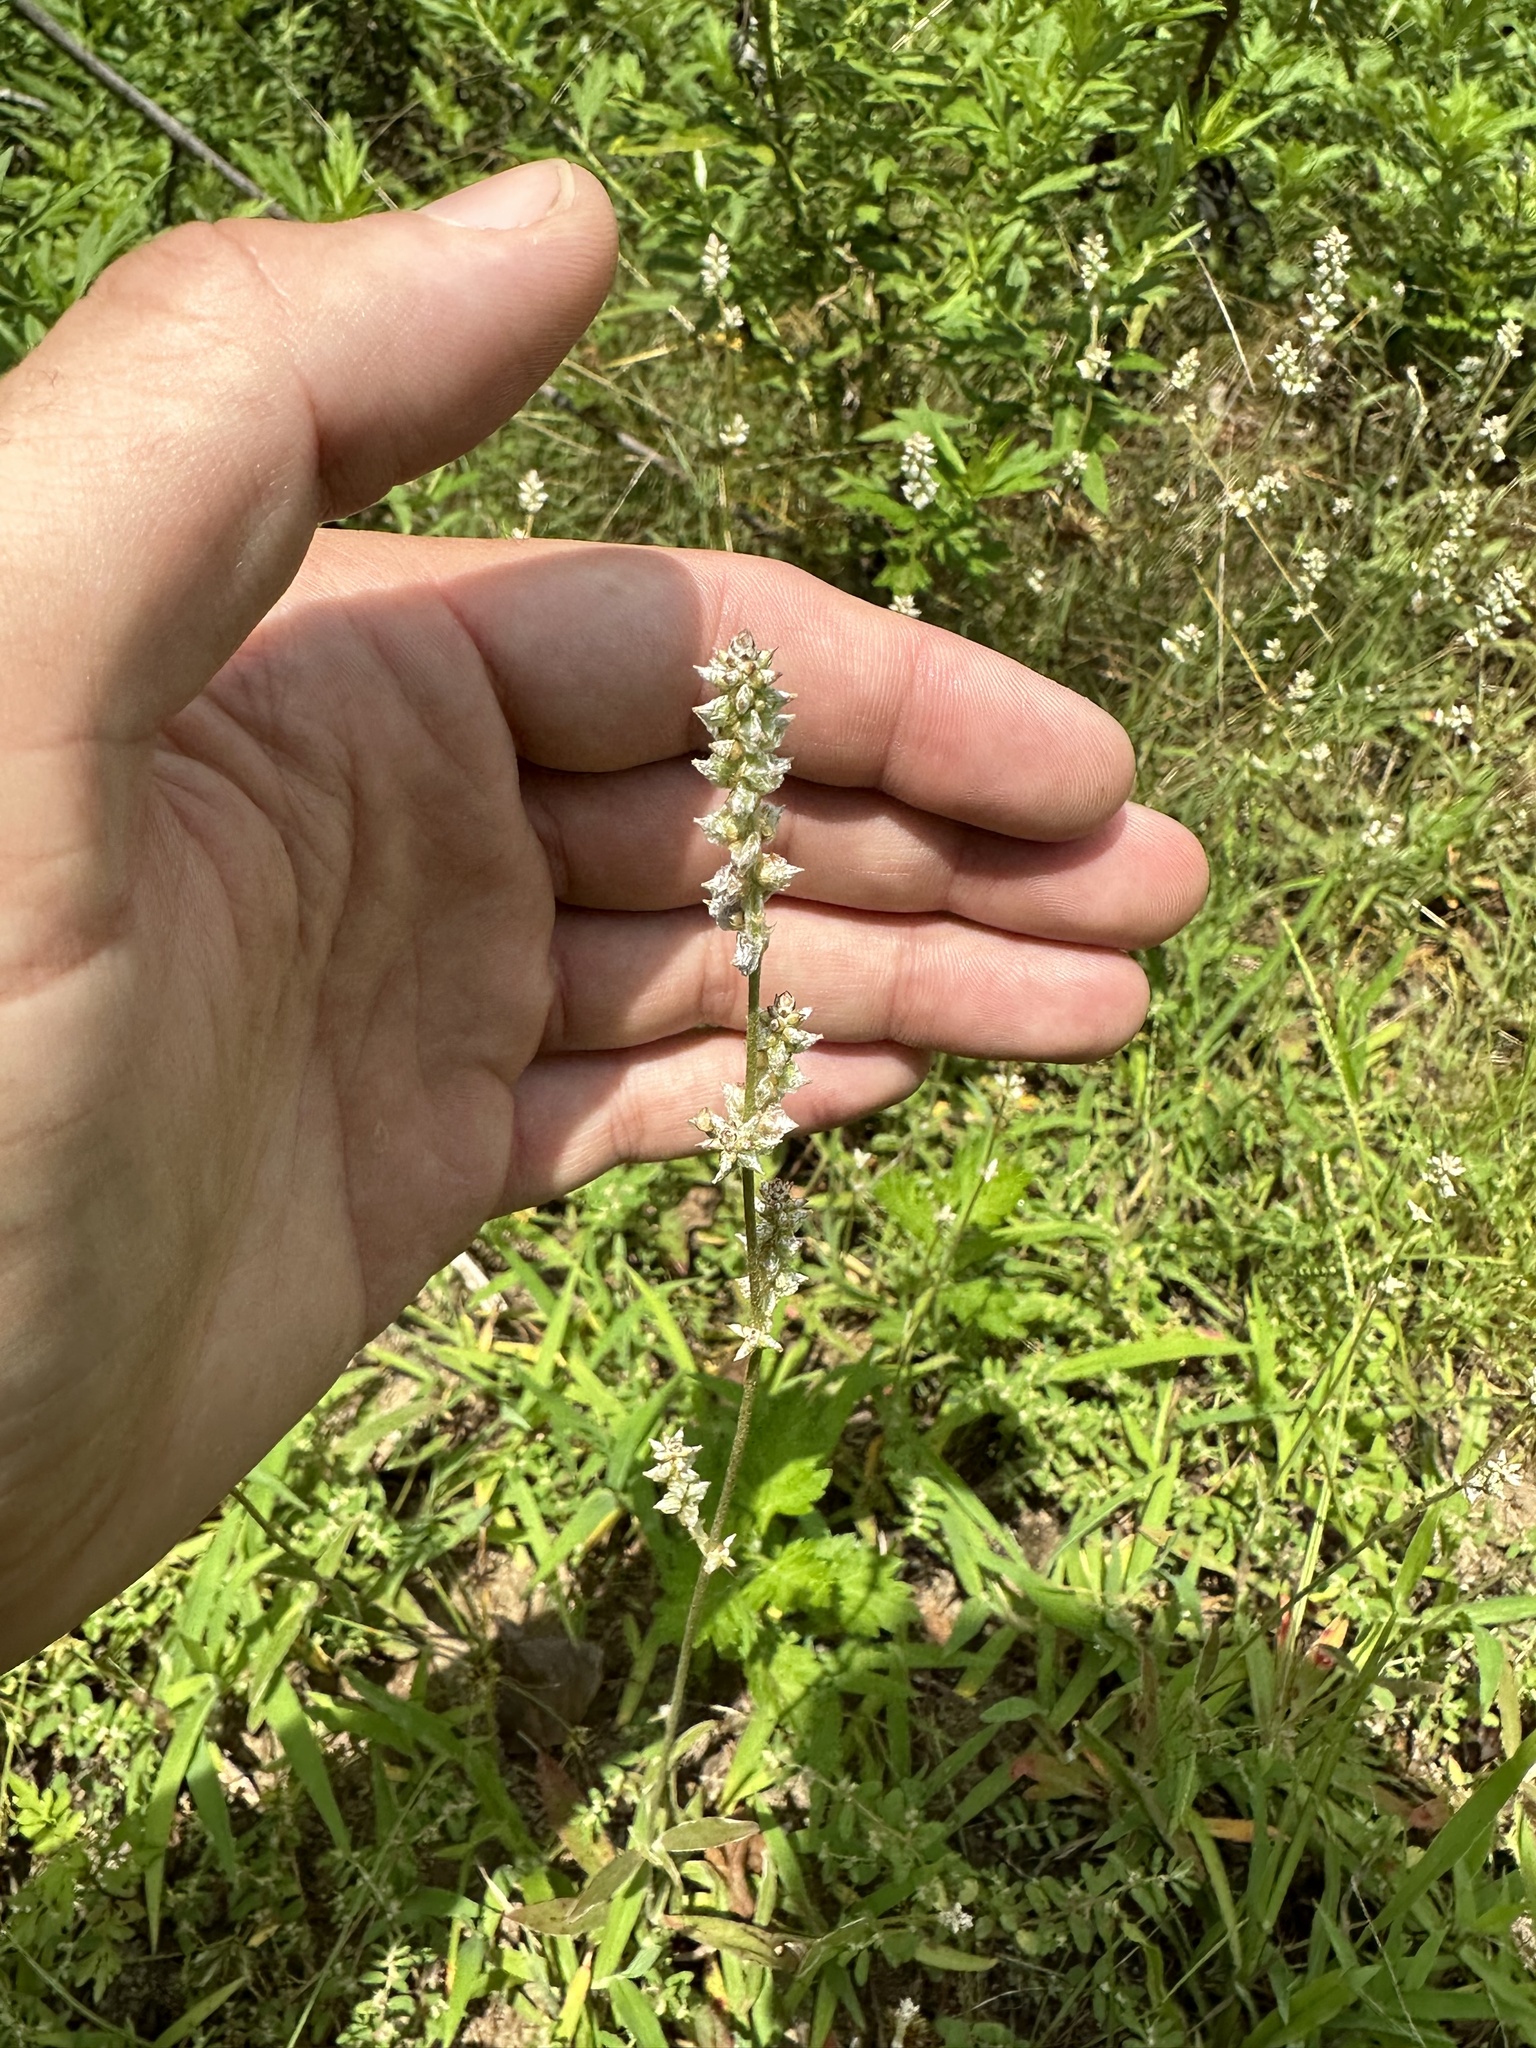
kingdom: Plantae
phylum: Tracheophyta
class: Magnoliopsida
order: Caryophyllales
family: Amaranthaceae
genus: Froelichia
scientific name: Froelichia gracilis
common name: Slender cottonweed
